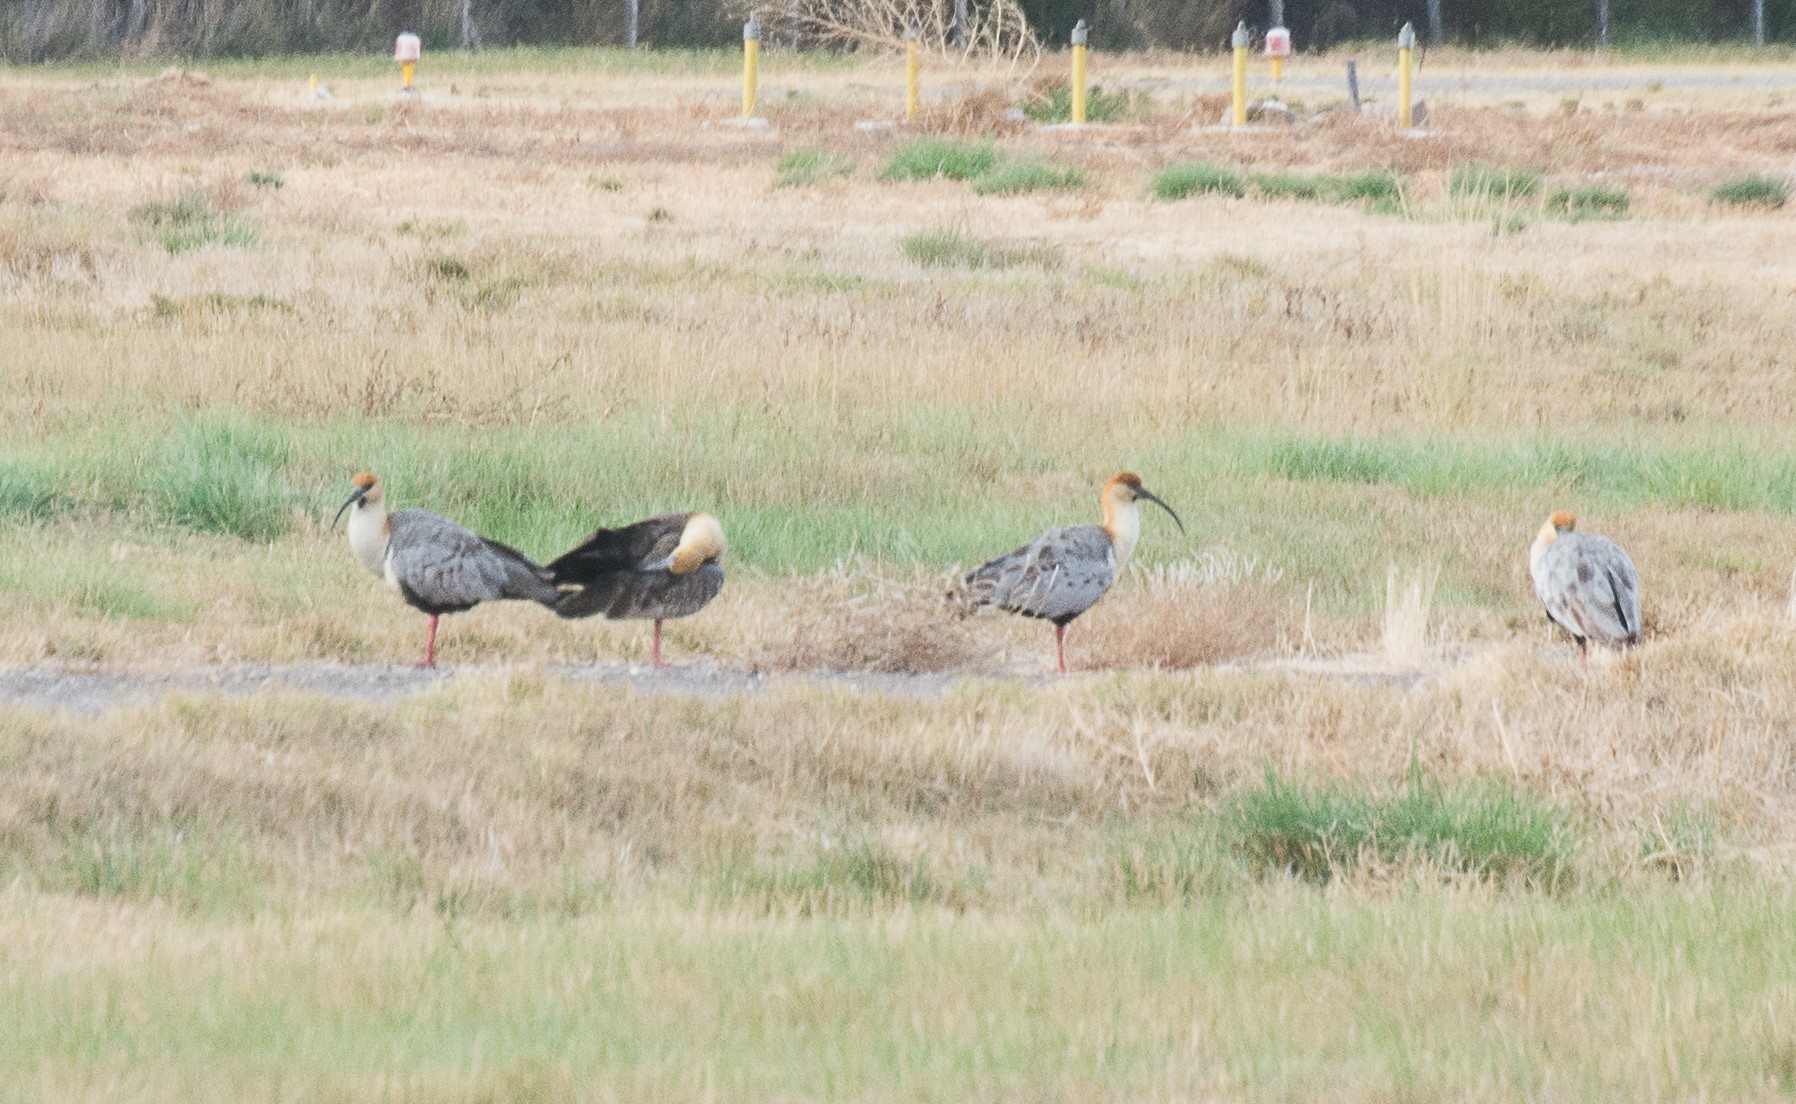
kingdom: Animalia
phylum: Chordata
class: Aves
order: Pelecaniformes
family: Threskiornithidae
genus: Theristicus
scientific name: Theristicus melanopis
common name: Black-faced ibis
